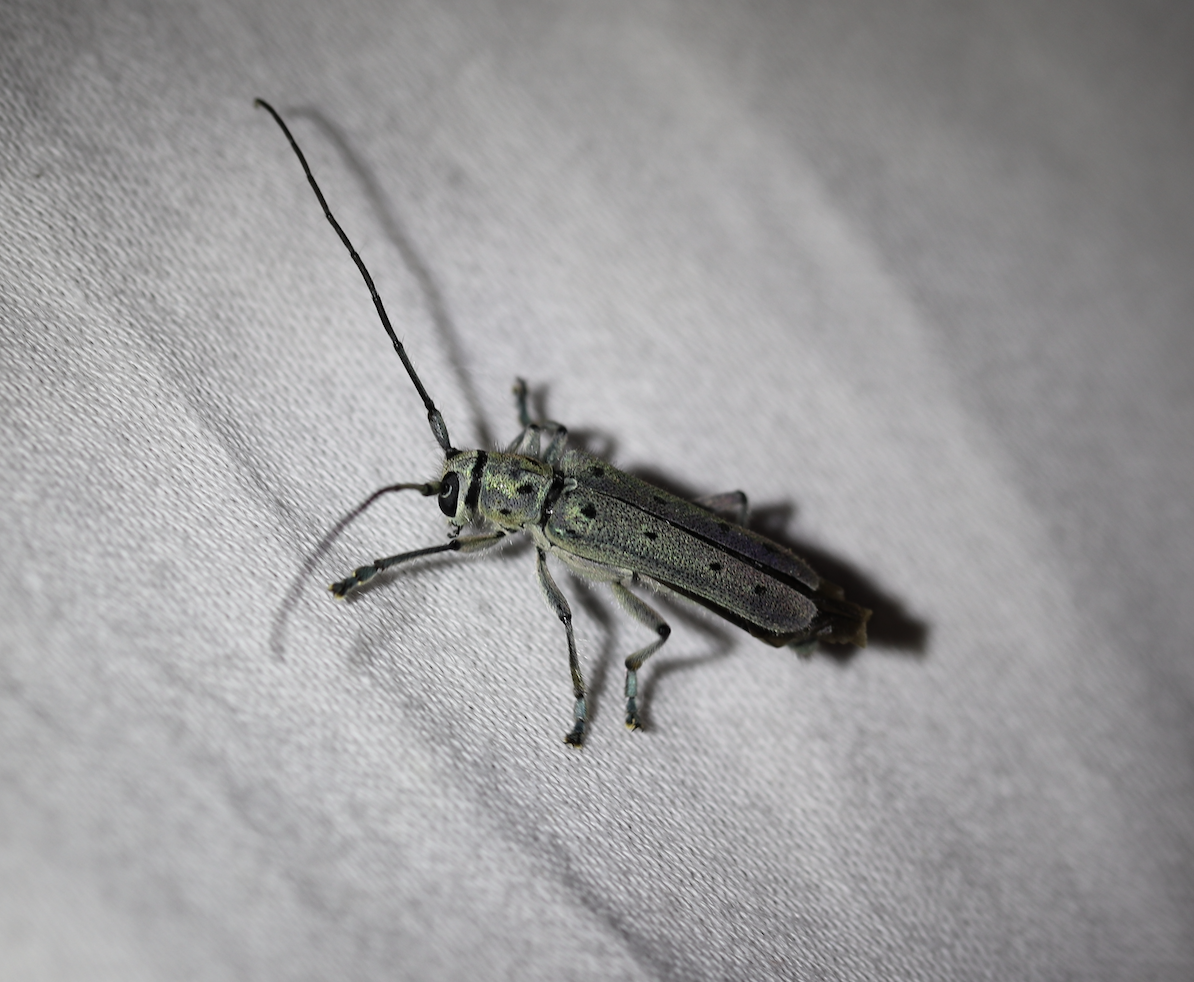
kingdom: Animalia
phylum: Arthropoda
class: Insecta
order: Coleoptera
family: Cerambycidae
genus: Saperda
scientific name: Saperda punctata
